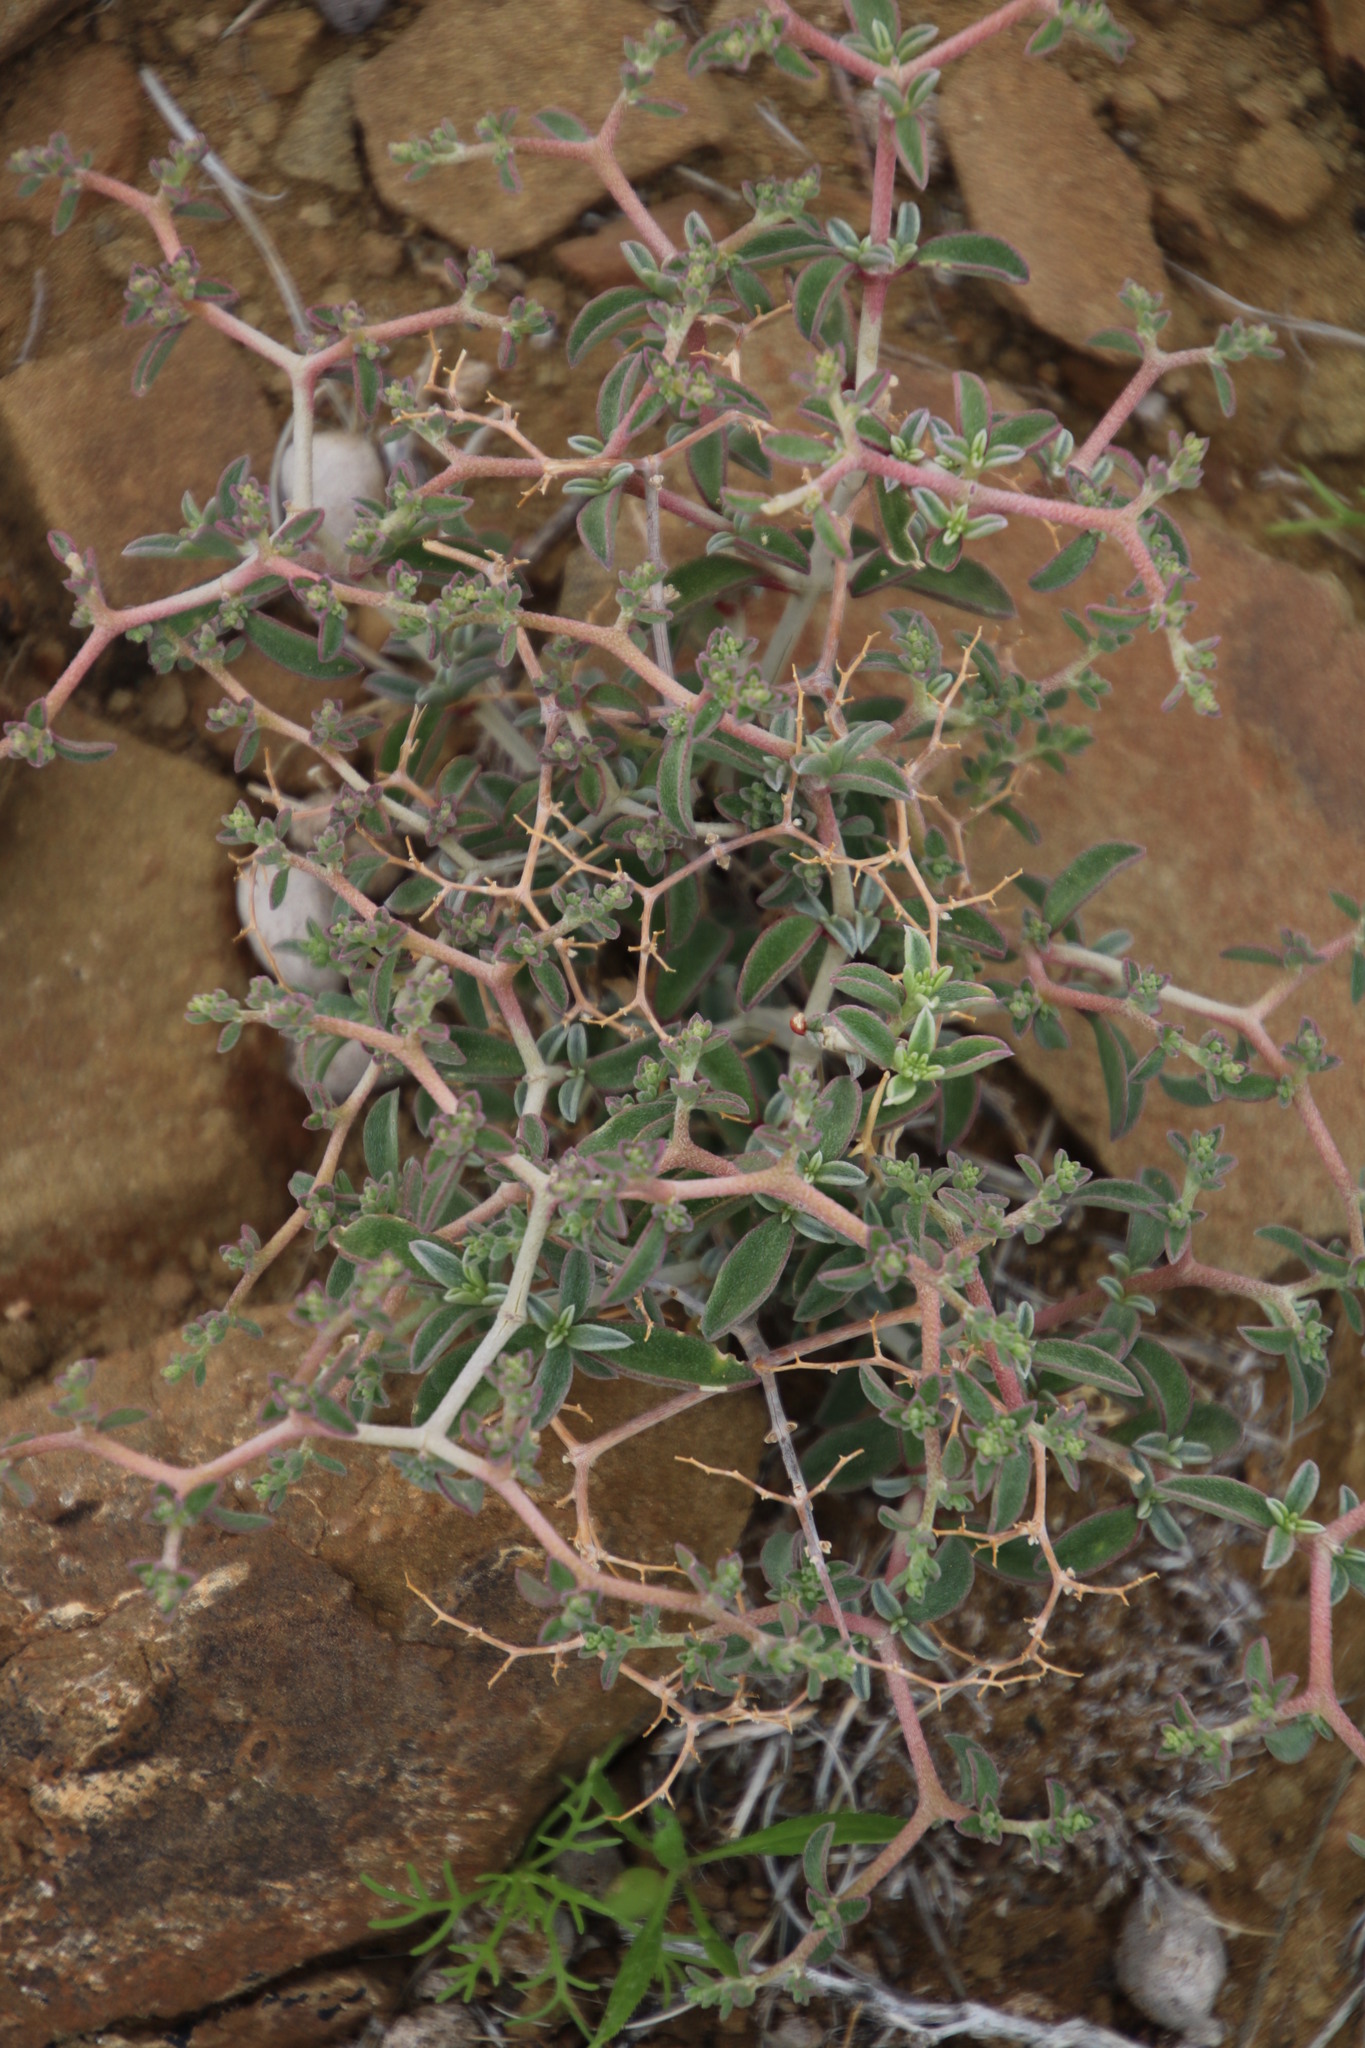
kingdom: Plantae
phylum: Tracheophyta
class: Magnoliopsida
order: Caryophyllales
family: Aizoaceae
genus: Aizoon
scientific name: Aizoon cymosum
